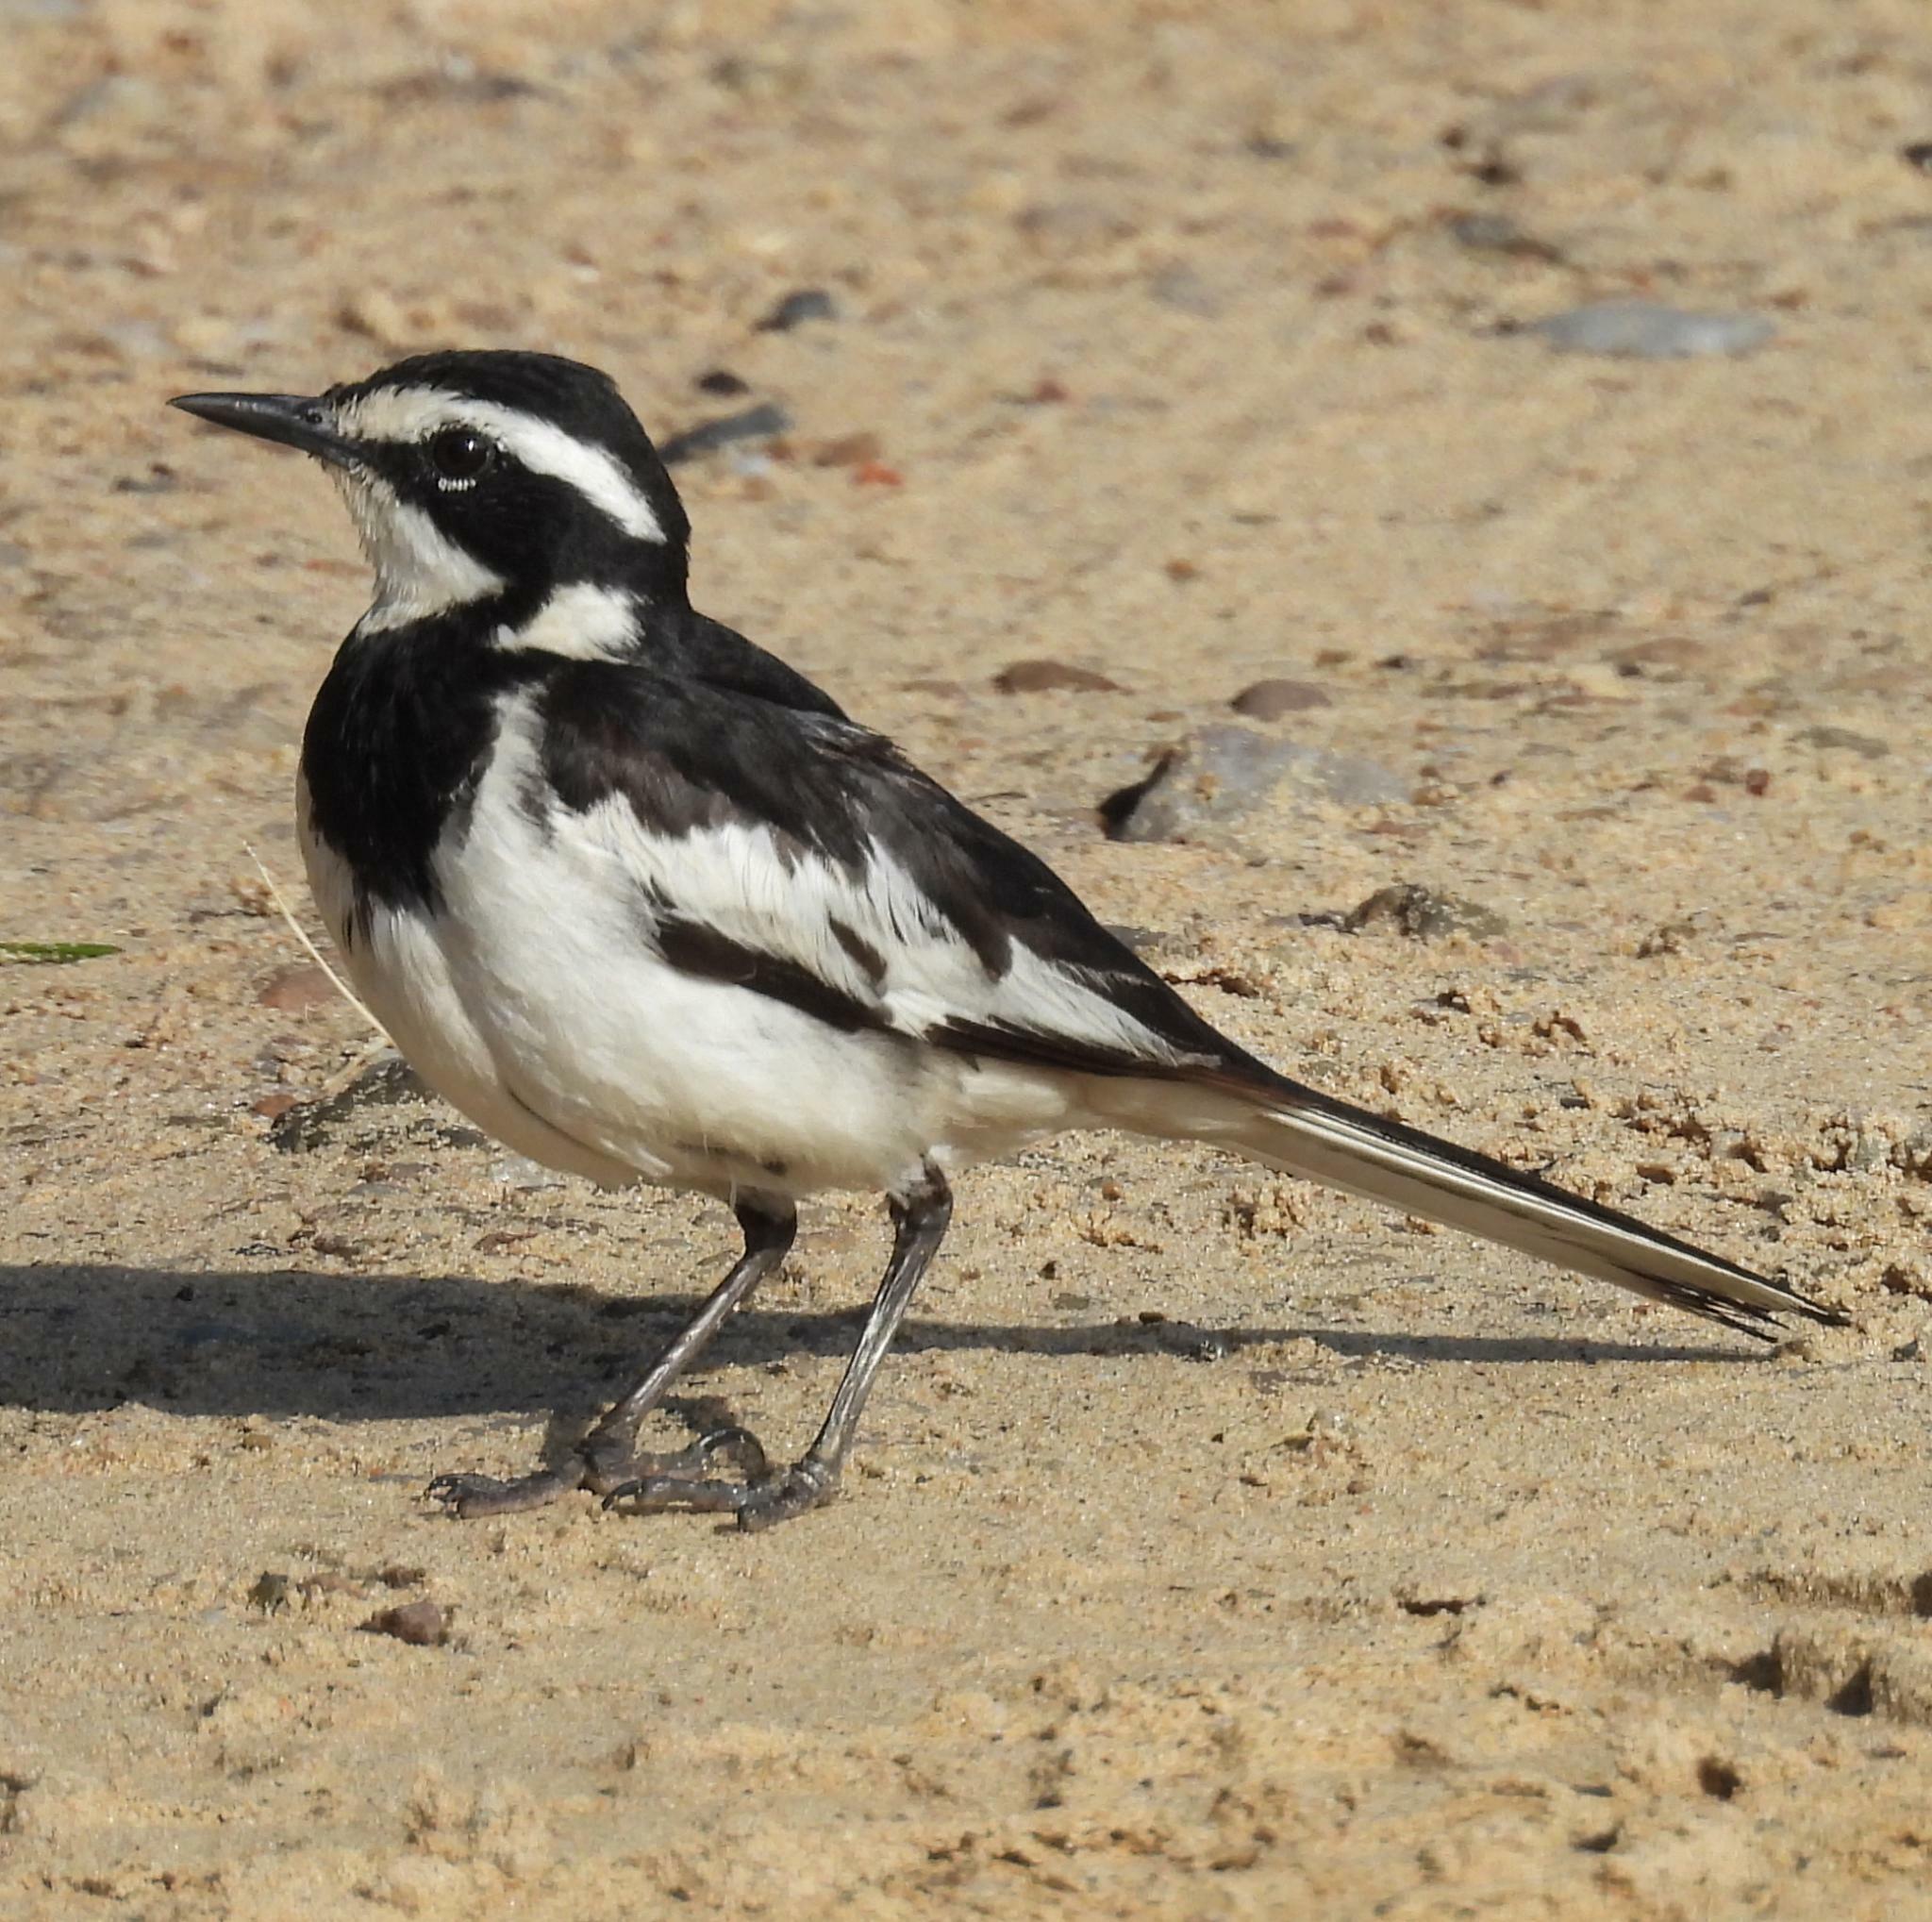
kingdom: Animalia
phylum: Chordata
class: Aves
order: Passeriformes
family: Motacillidae
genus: Motacilla
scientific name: Motacilla aguimp
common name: African pied wagtail
